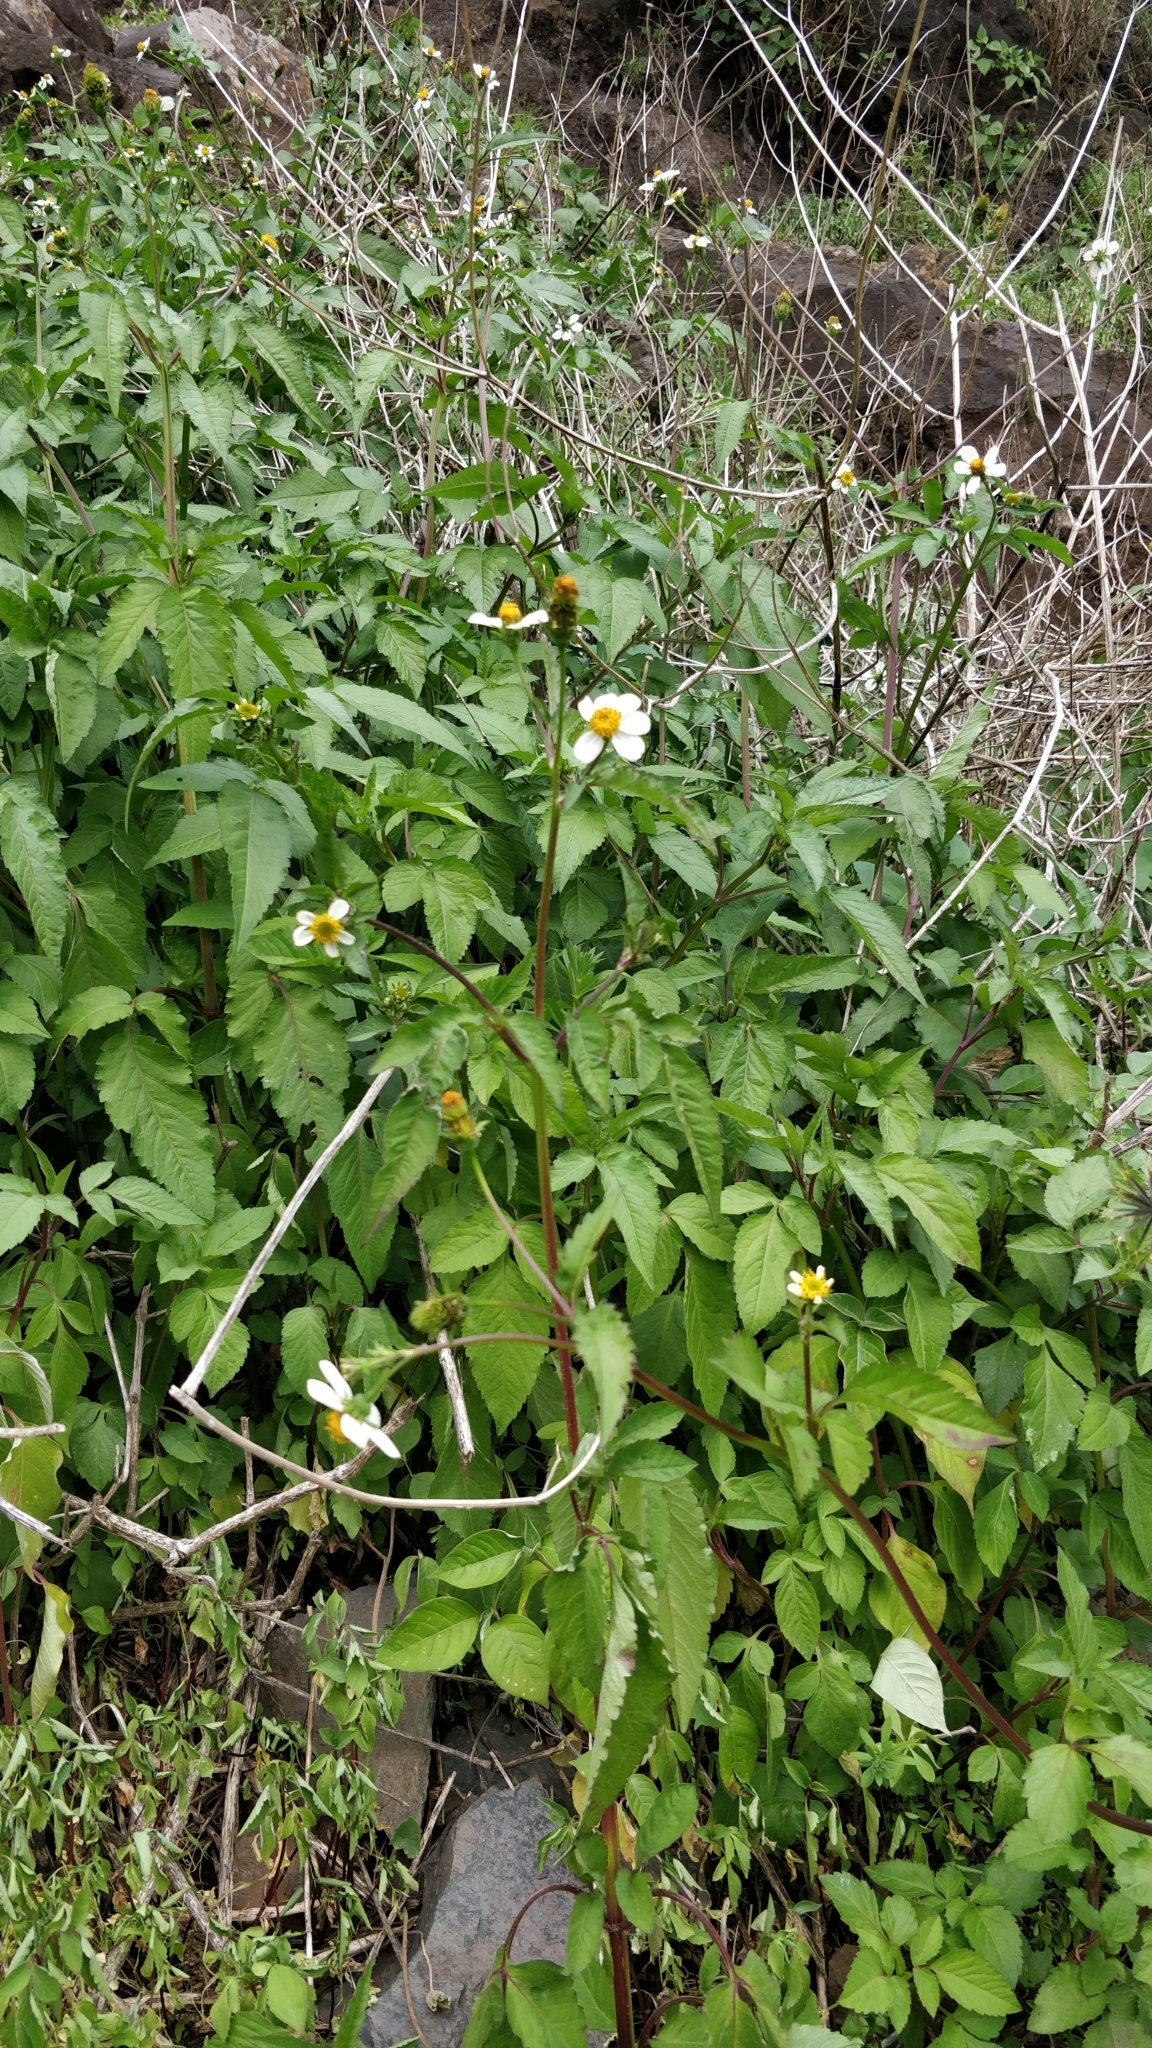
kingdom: Plantae
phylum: Tracheophyta
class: Magnoliopsida
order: Asterales
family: Asteraceae
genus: Bidens
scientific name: Bidens pilosa
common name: Black-jack
